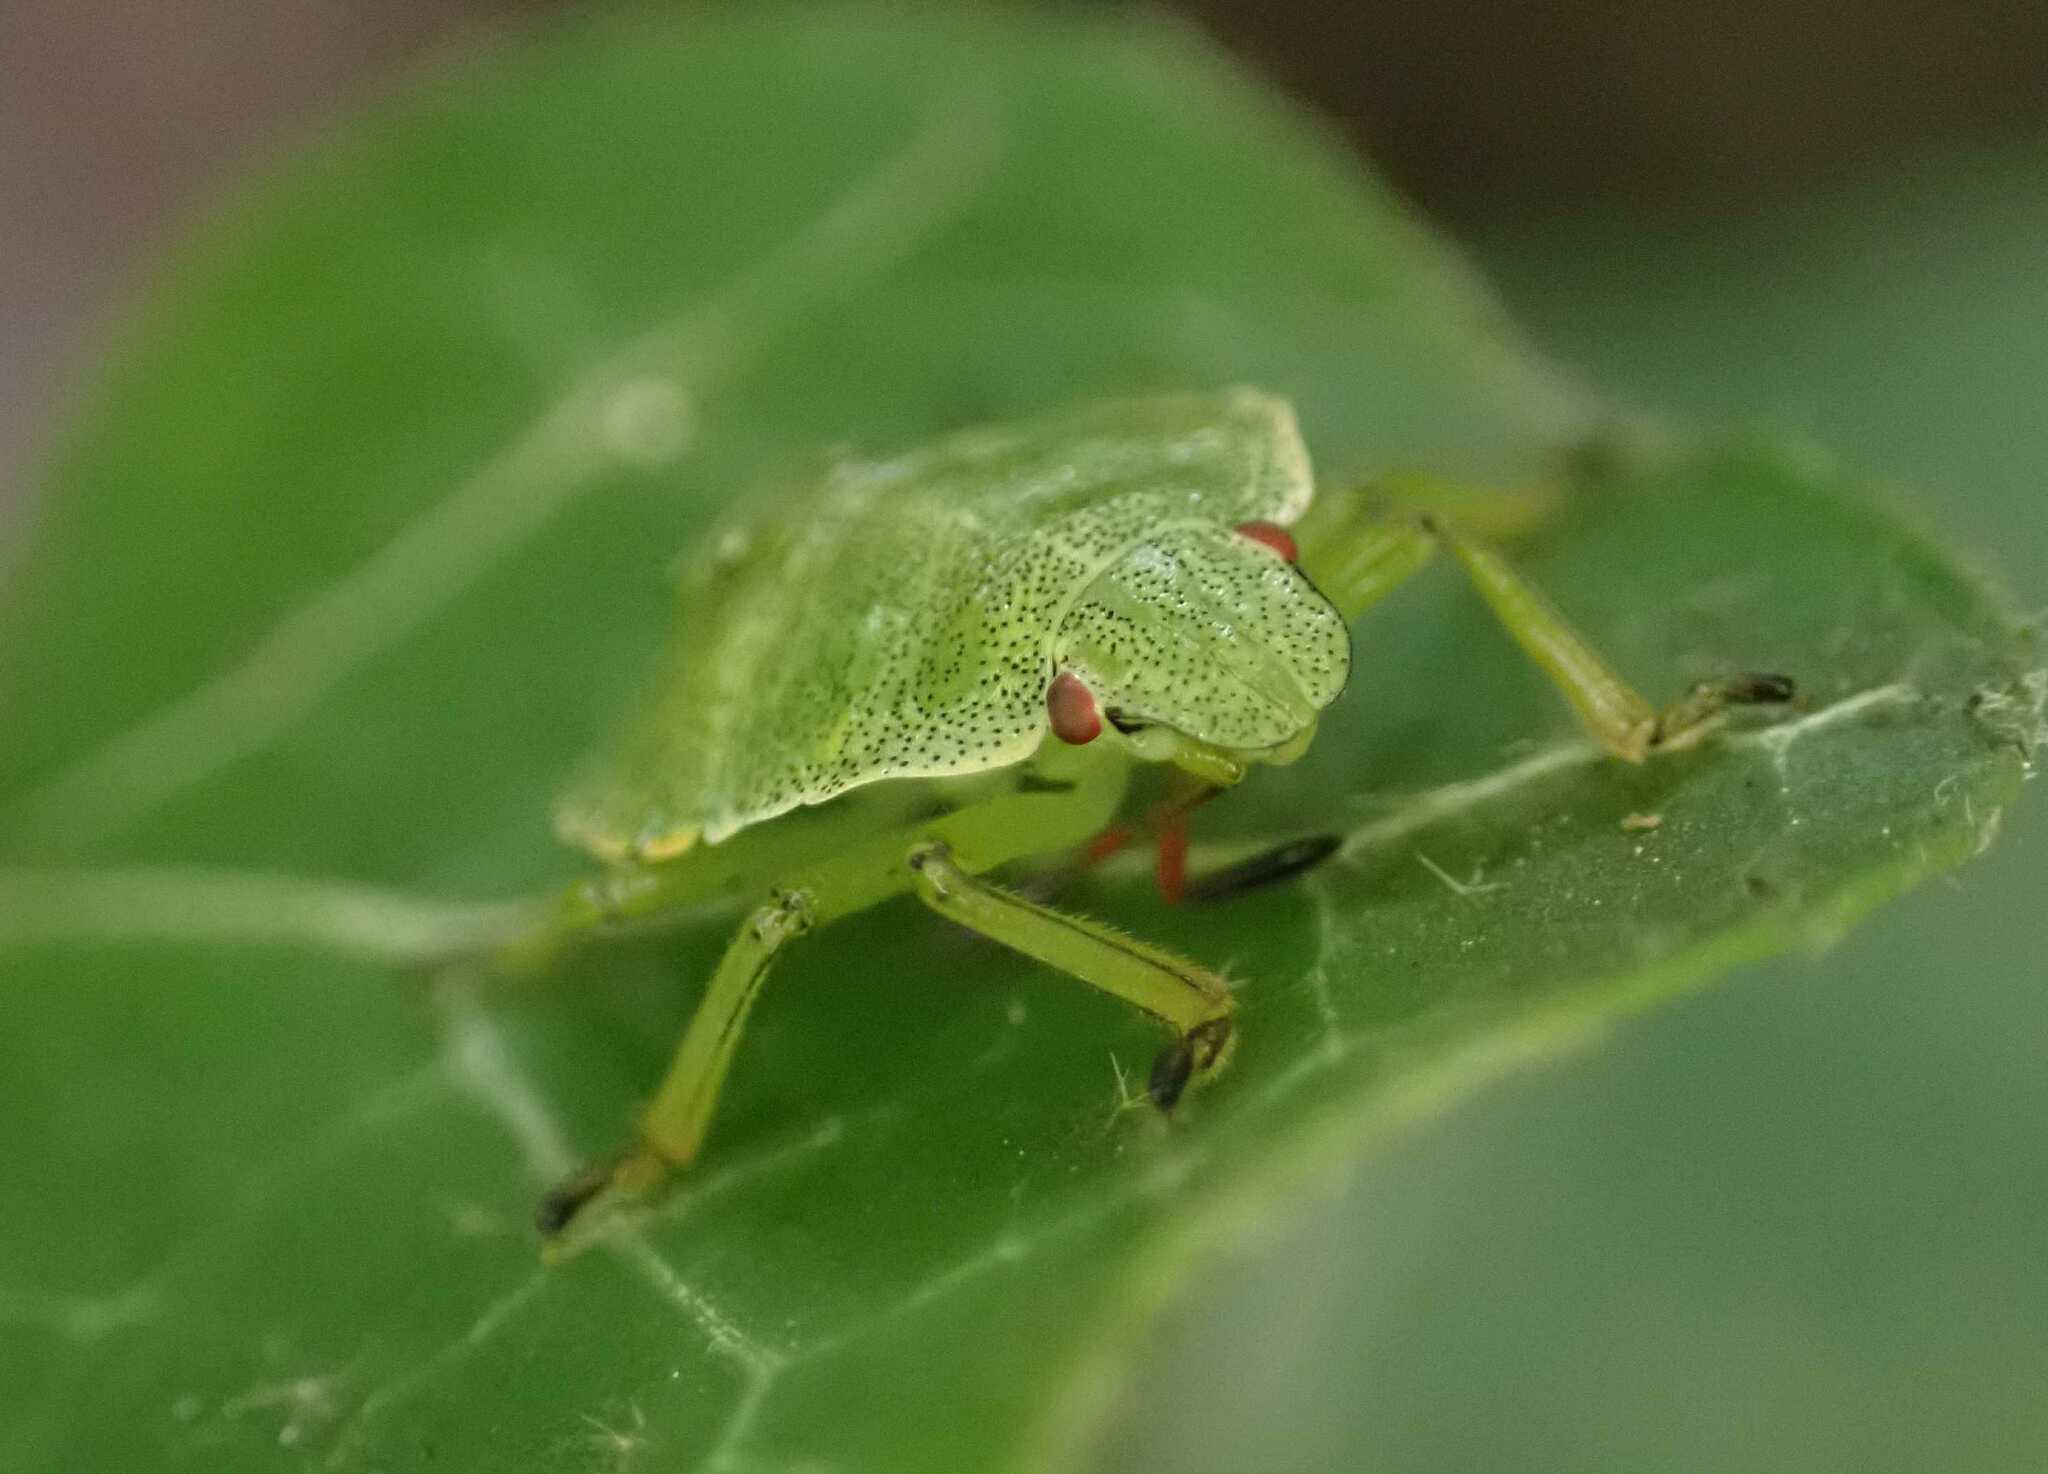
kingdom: Animalia
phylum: Arthropoda
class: Insecta
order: Hemiptera
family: Pentatomidae
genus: Palomena
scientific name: Palomena prasina
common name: Green shieldbug
